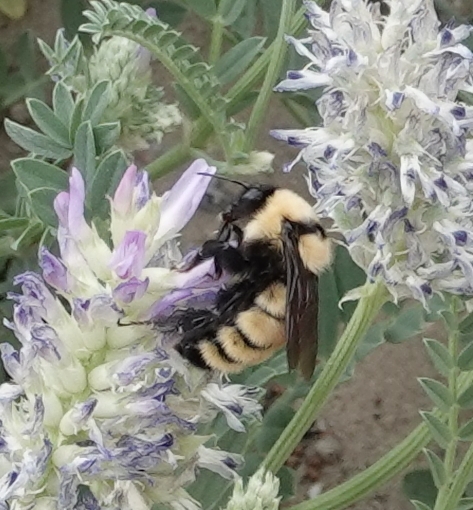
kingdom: Animalia
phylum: Arthropoda
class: Insecta
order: Hymenoptera
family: Apidae
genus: Bombus
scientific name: Bombus fervidus
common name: Yellow bumble bee
